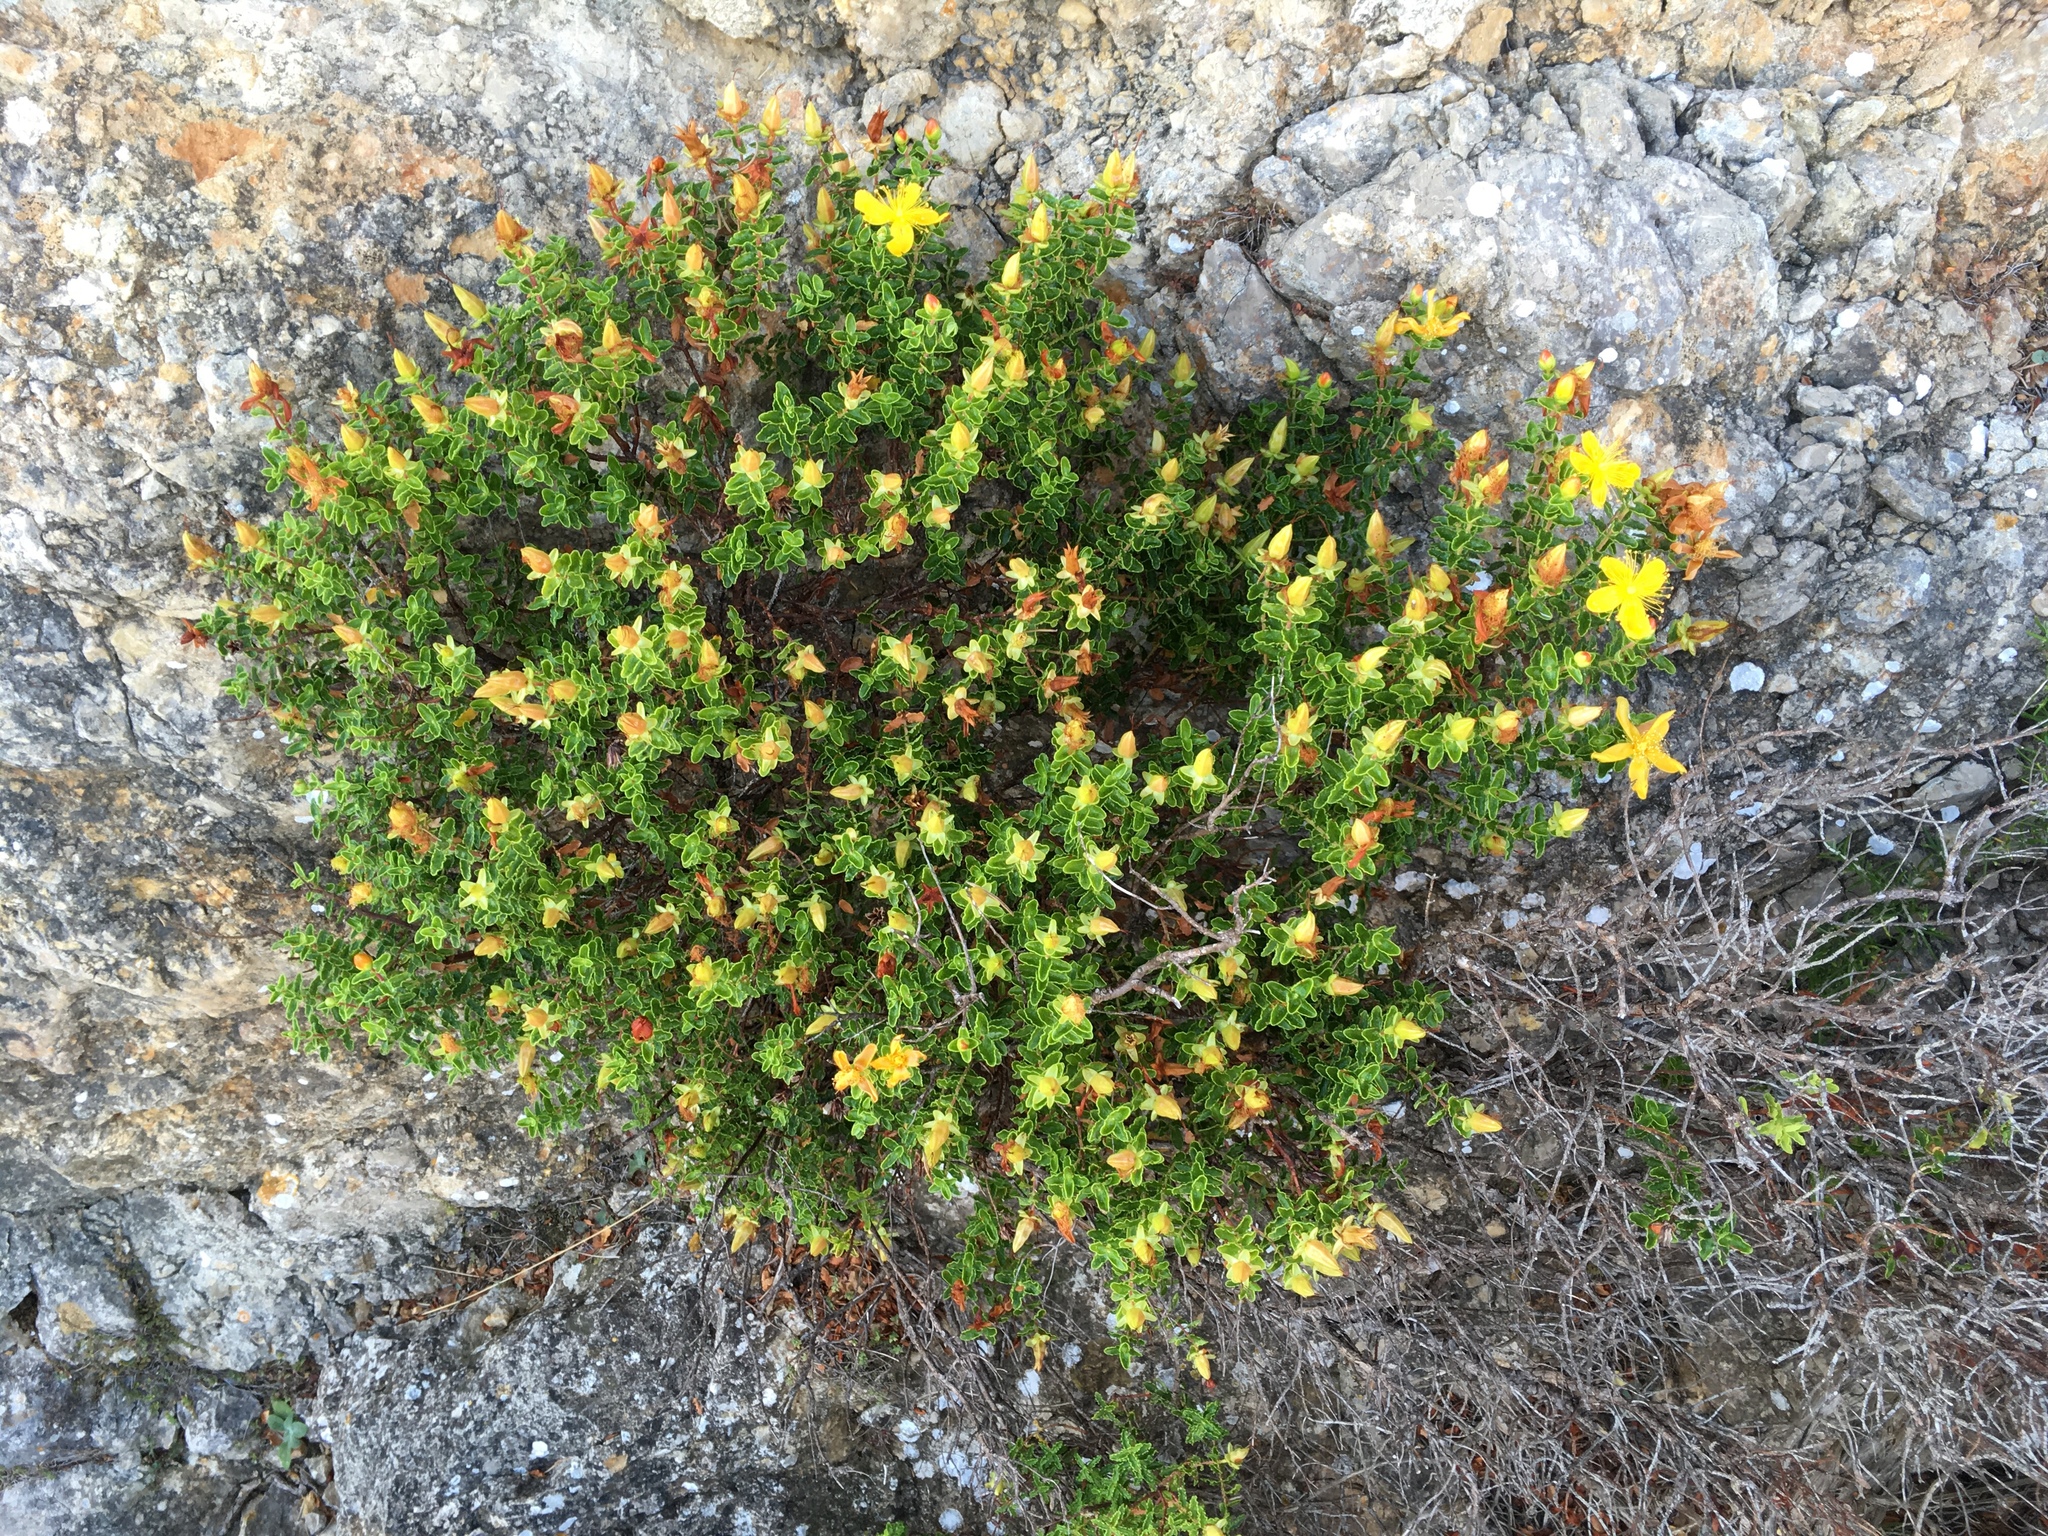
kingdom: Plantae
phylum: Tracheophyta
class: Magnoliopsida
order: Malpighiales
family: Hypericaceae
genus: Hypericum
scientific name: Hypericum balearicum
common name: Majorca st john's wort
